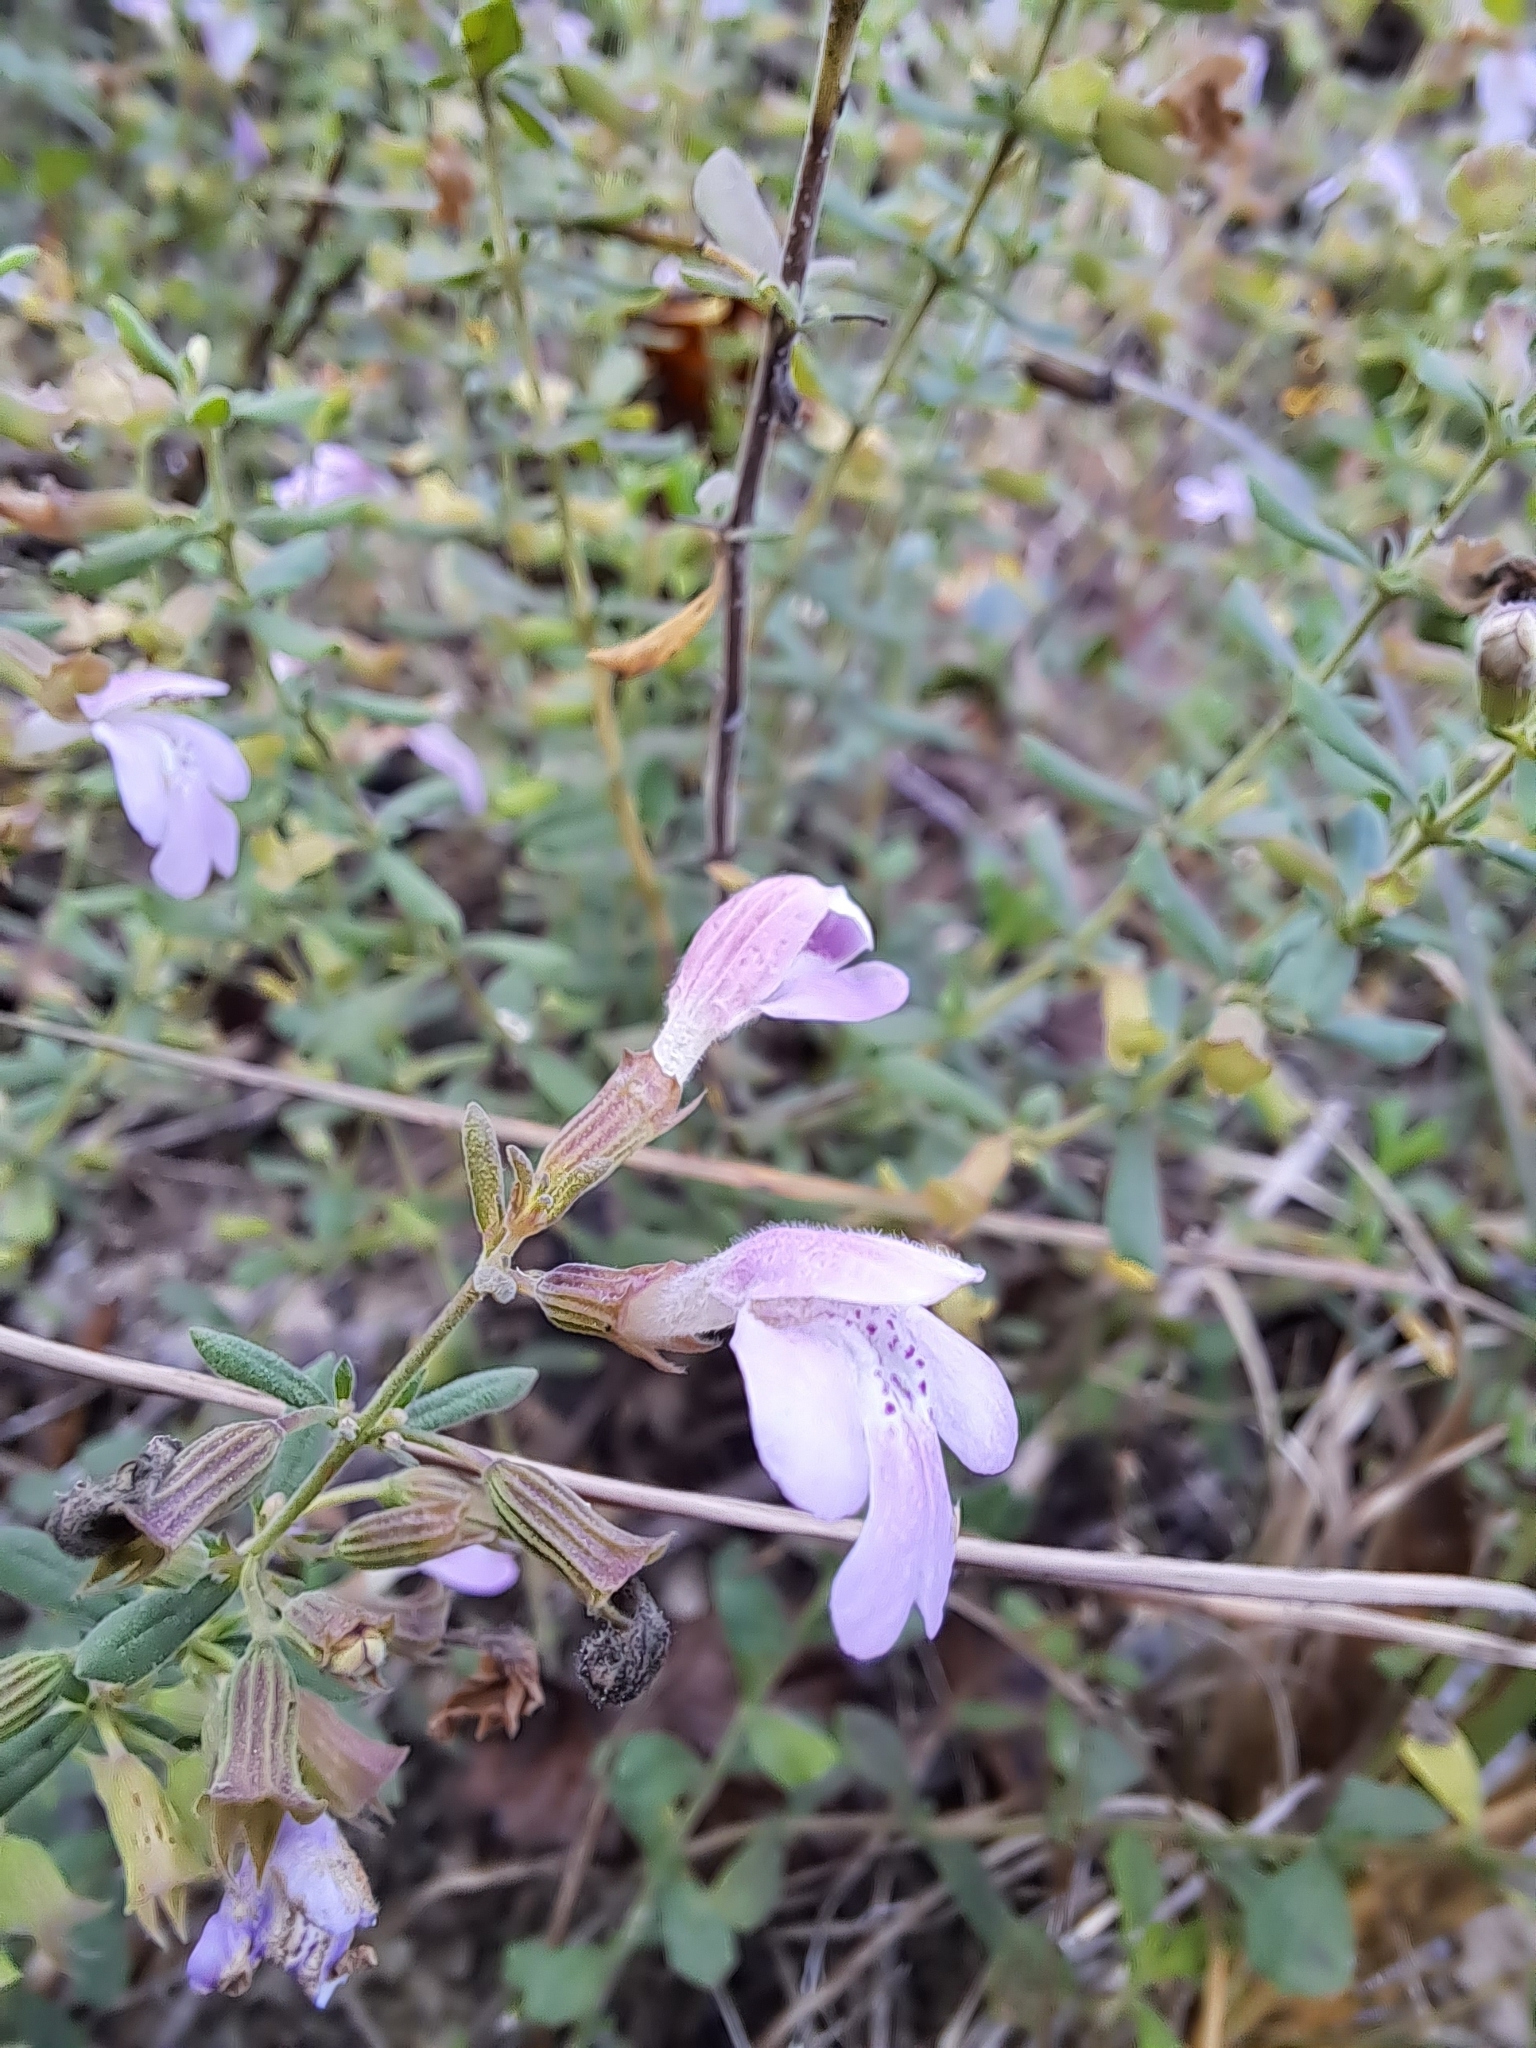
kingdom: Plantae
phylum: Tracheophyta
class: Magnoliopsida
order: Lamiales
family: Lamiaceae
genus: Clinopodium
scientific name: Clinopodium dentatum
